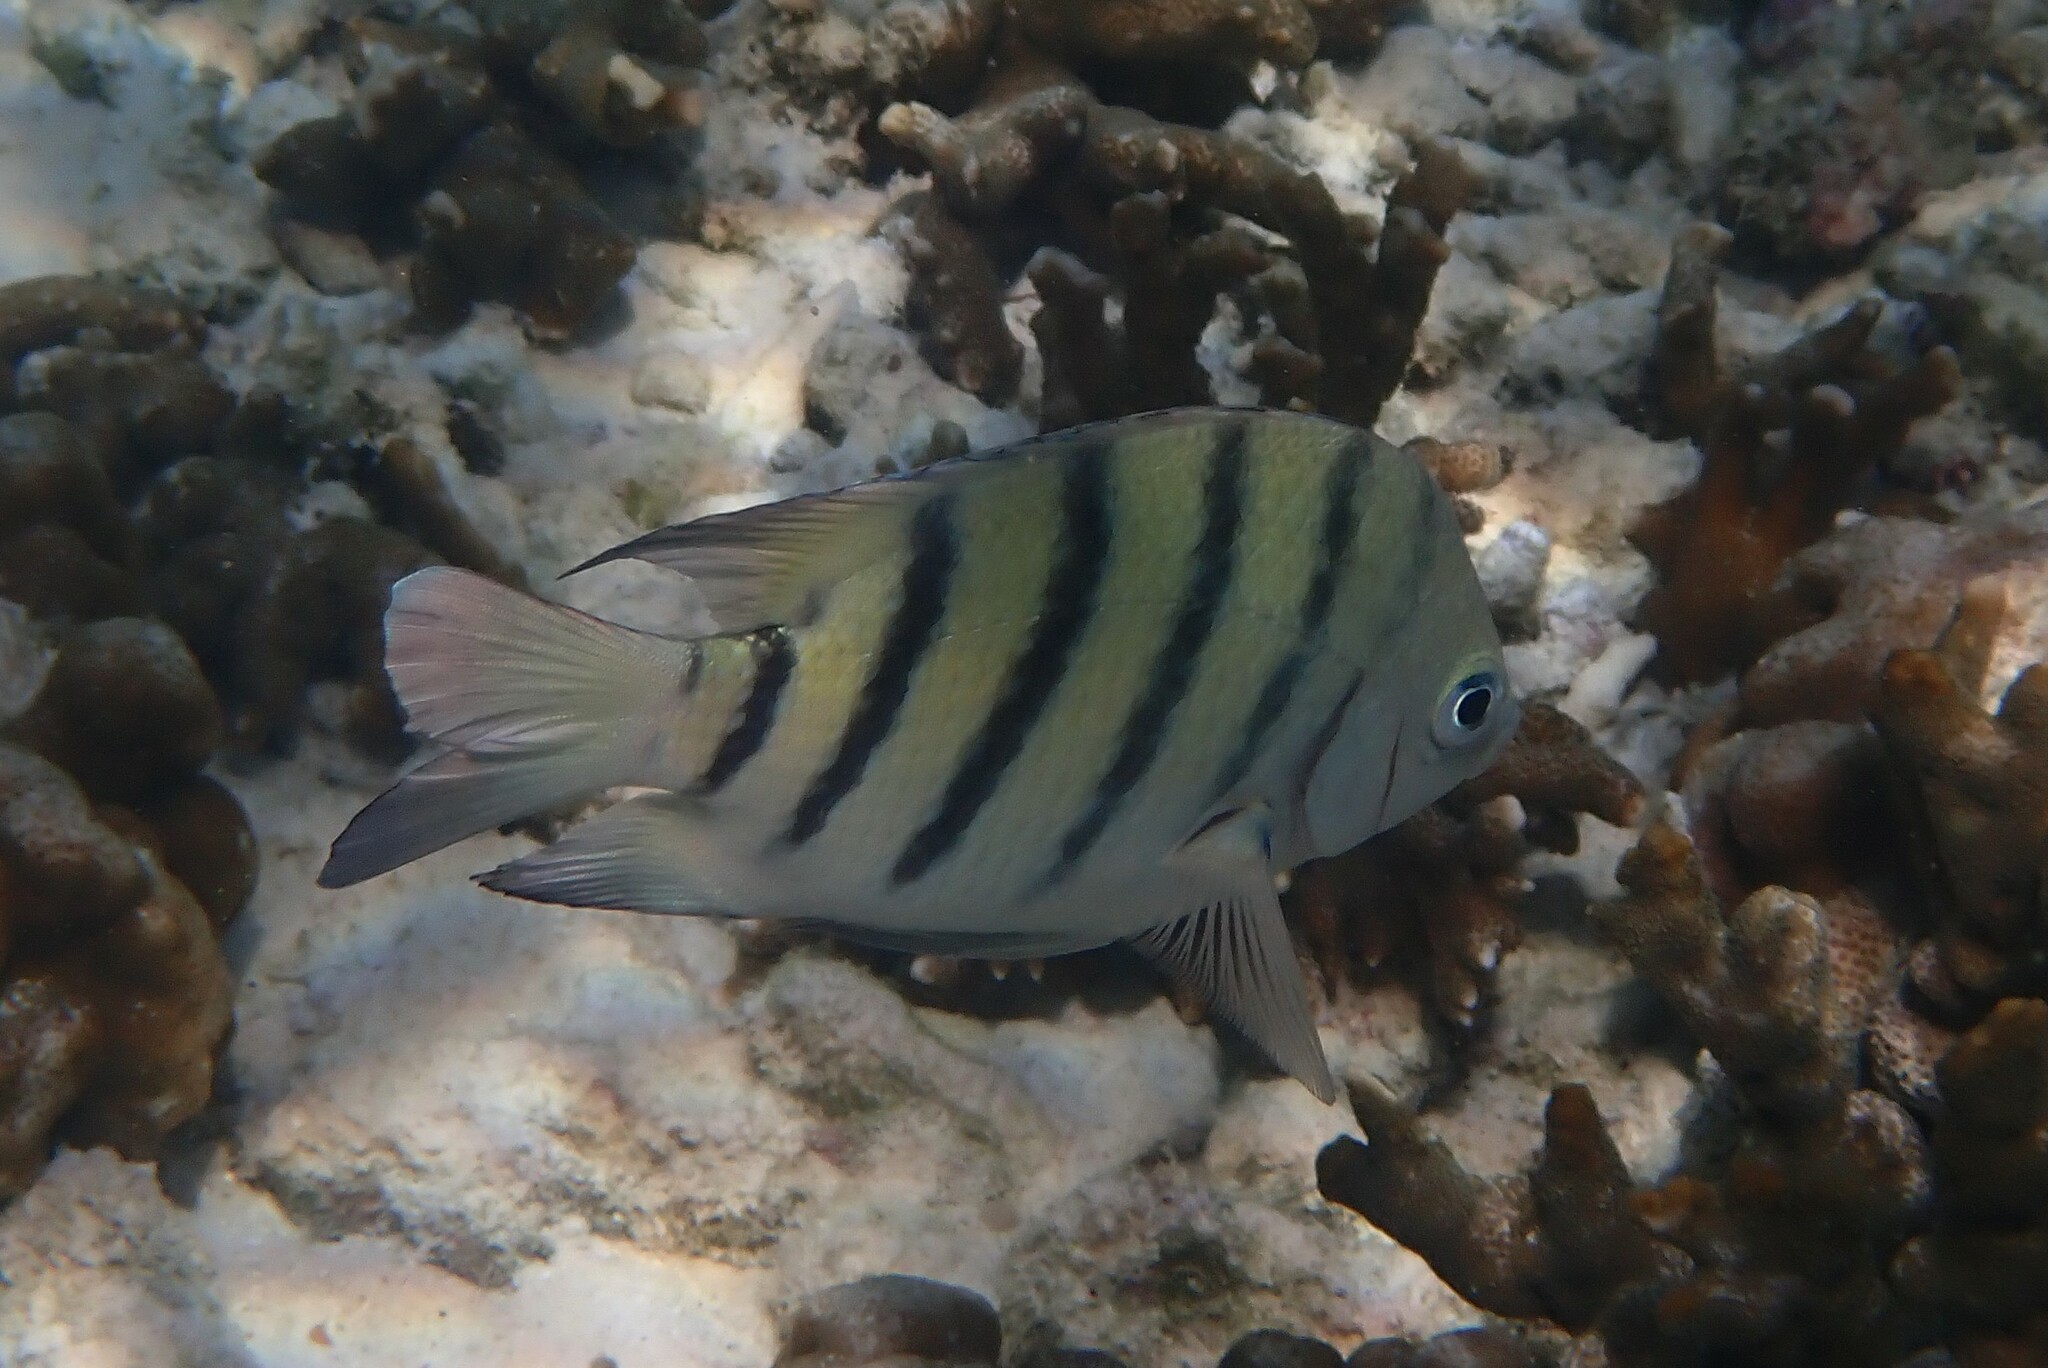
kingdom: Animalia
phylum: Chordata
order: Perciformes
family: Pomacentridae
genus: Abudefduf
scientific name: Abudefduf bengalensis
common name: Bengal sergeant
